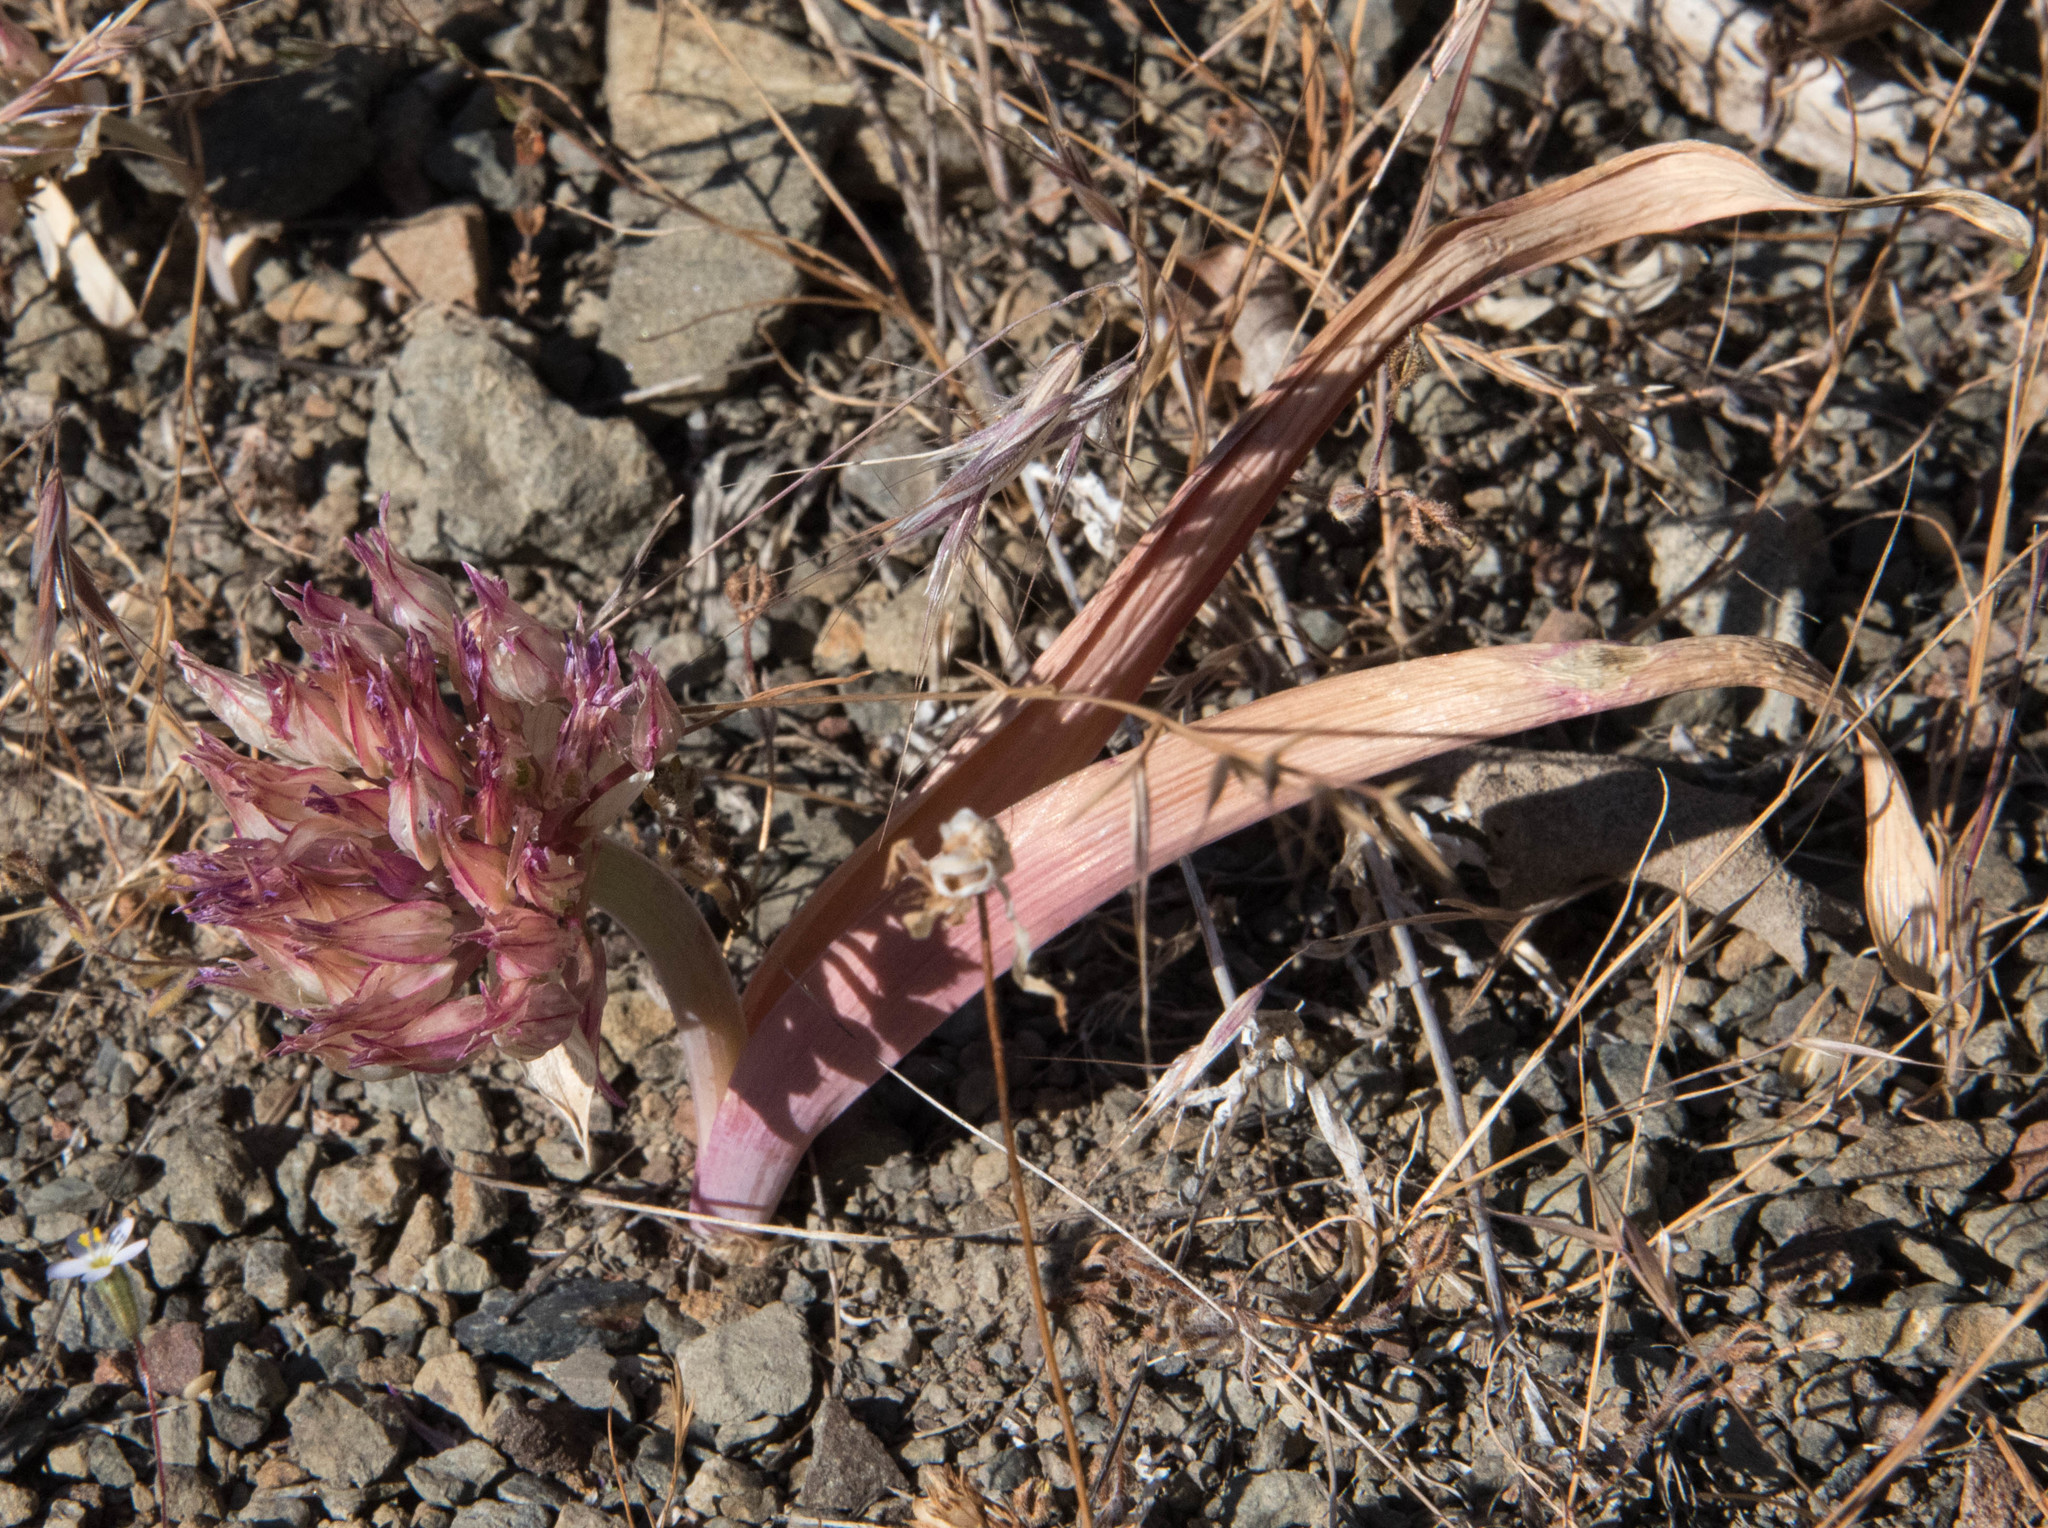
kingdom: Plantae
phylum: Tracheophyta
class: Liliopsida
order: Asparagales
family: Amaryllidaceae
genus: Allium
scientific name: Allium falcifolium
